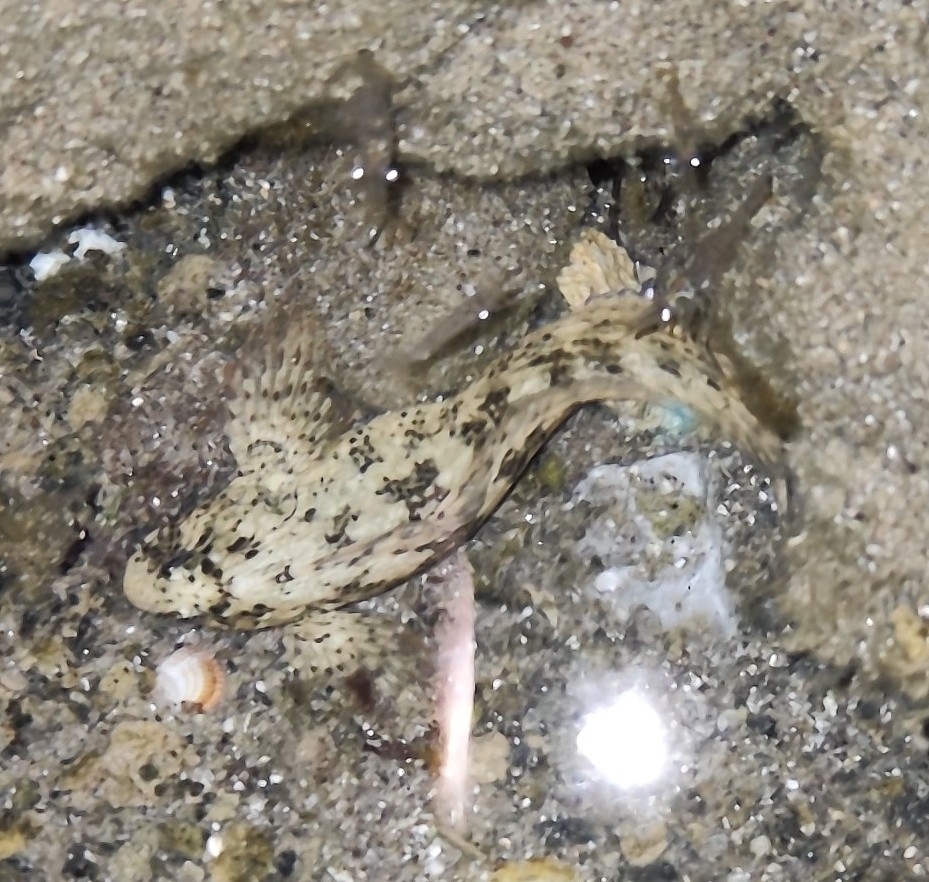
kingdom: Animalia
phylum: Chordata
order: Perciformes
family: Blenniidae
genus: Parablennius
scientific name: Parablennius sanguinolentus
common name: Black sea blenny
